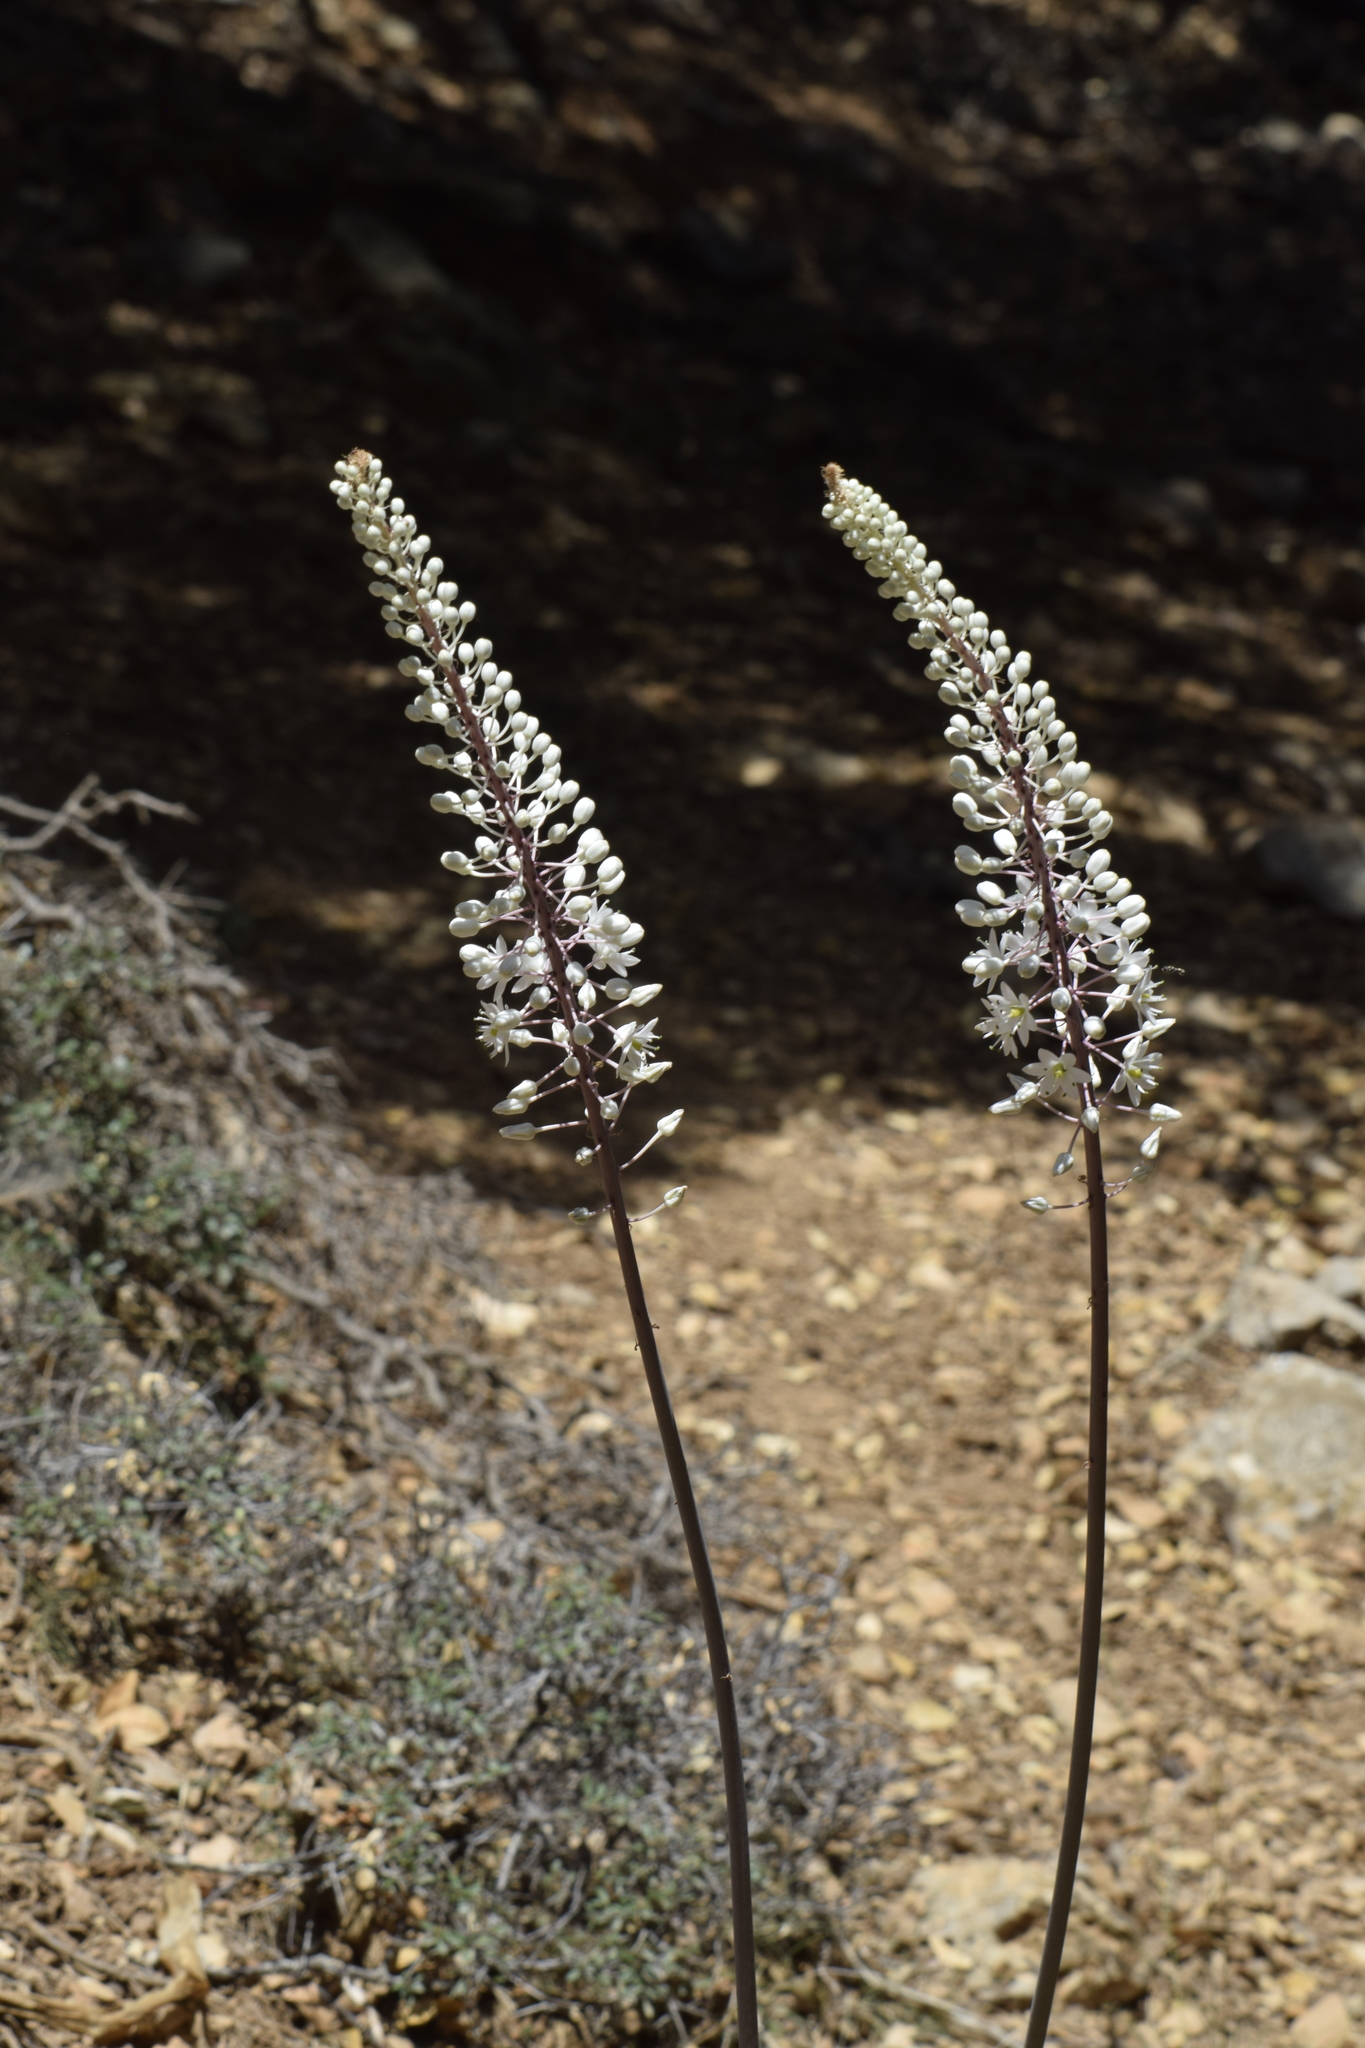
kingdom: Plantae
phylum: Tracheophyta
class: Liliopsida
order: Asparagales
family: Asparagaceae
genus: Drimia
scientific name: Drimia numidica
